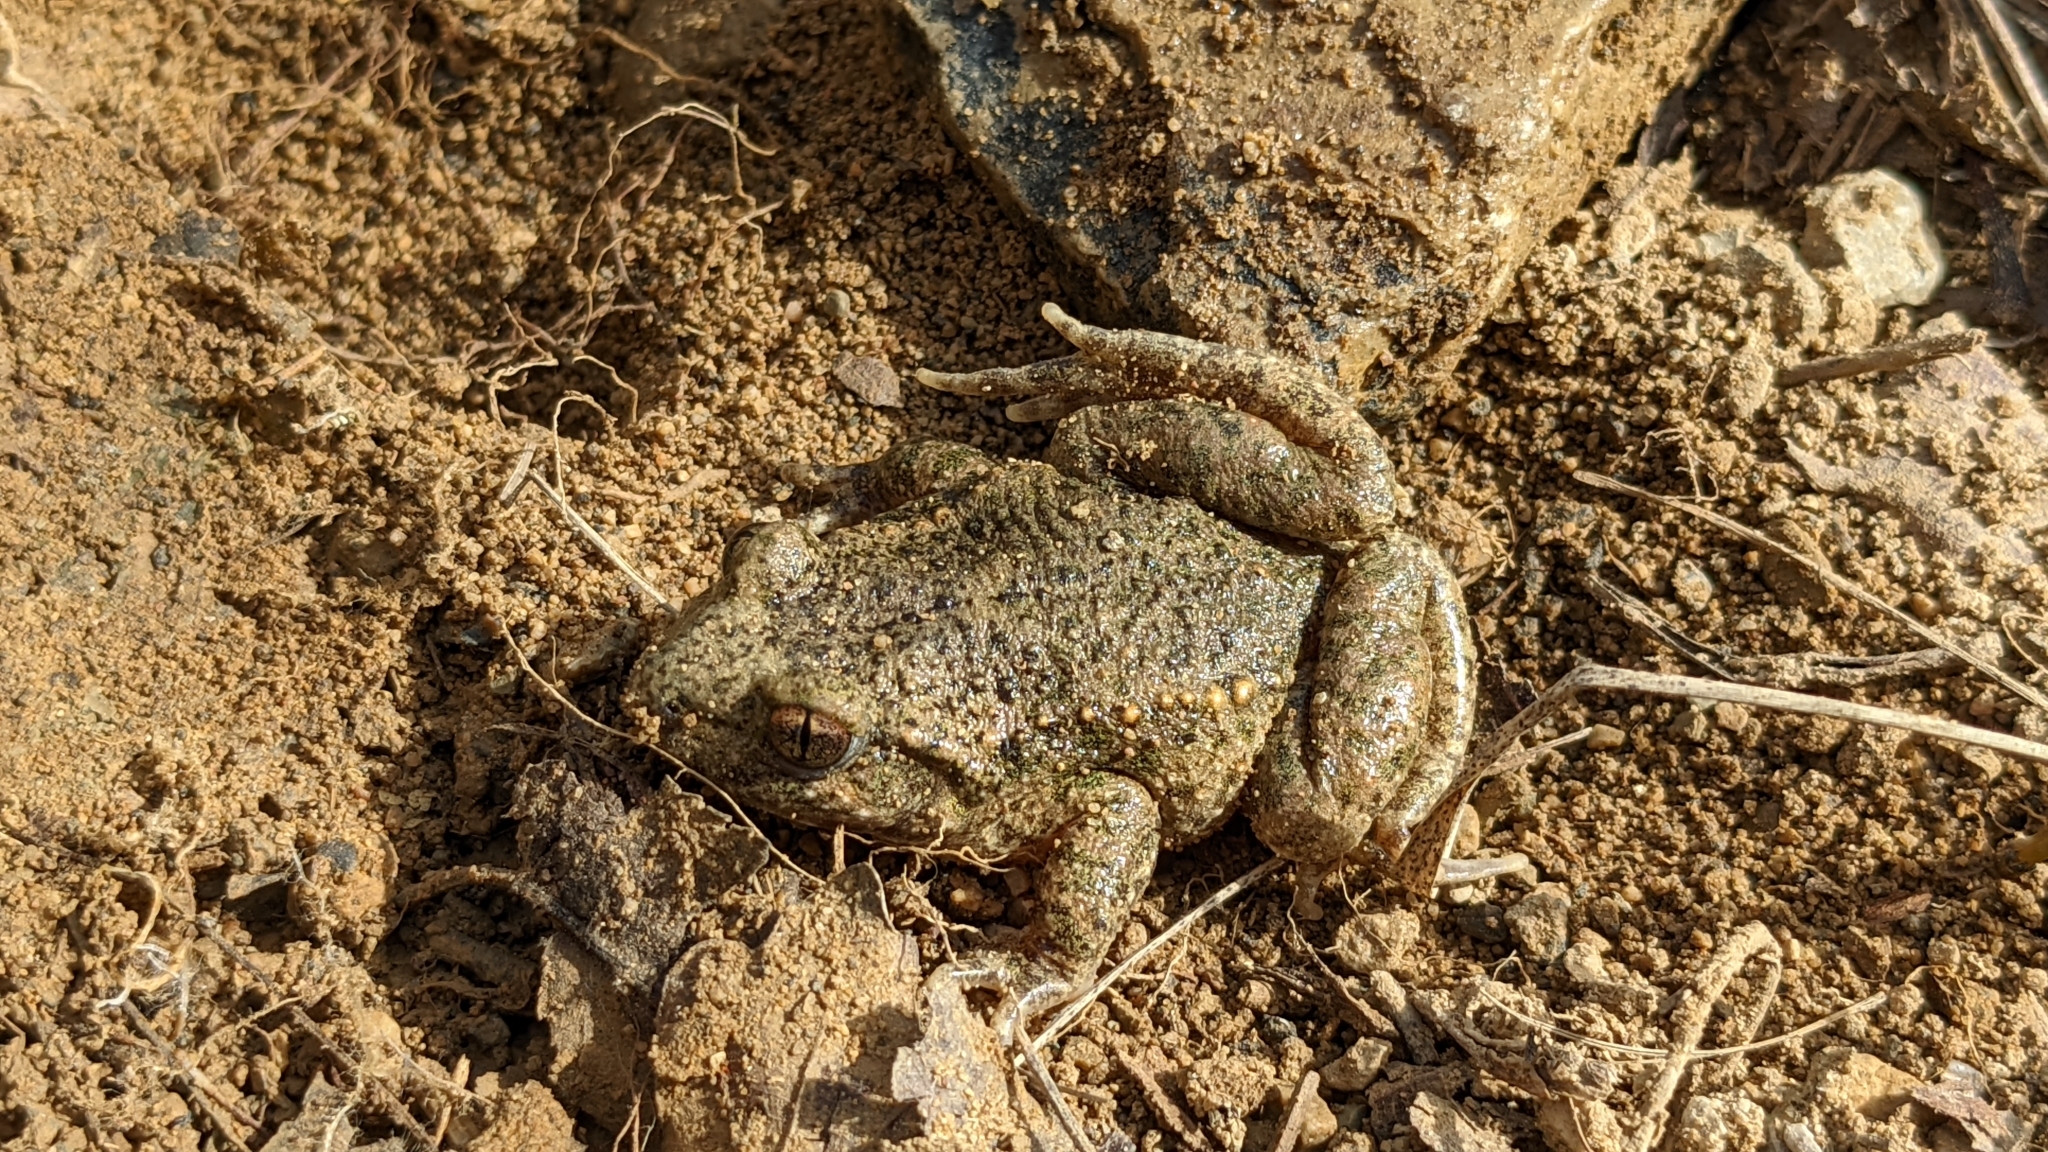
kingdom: Animalia
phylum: Chordata
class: Amphibia
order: Anura
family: Alytidae
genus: Alytes
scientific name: Alytes obstetricans
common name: Midwife toad
